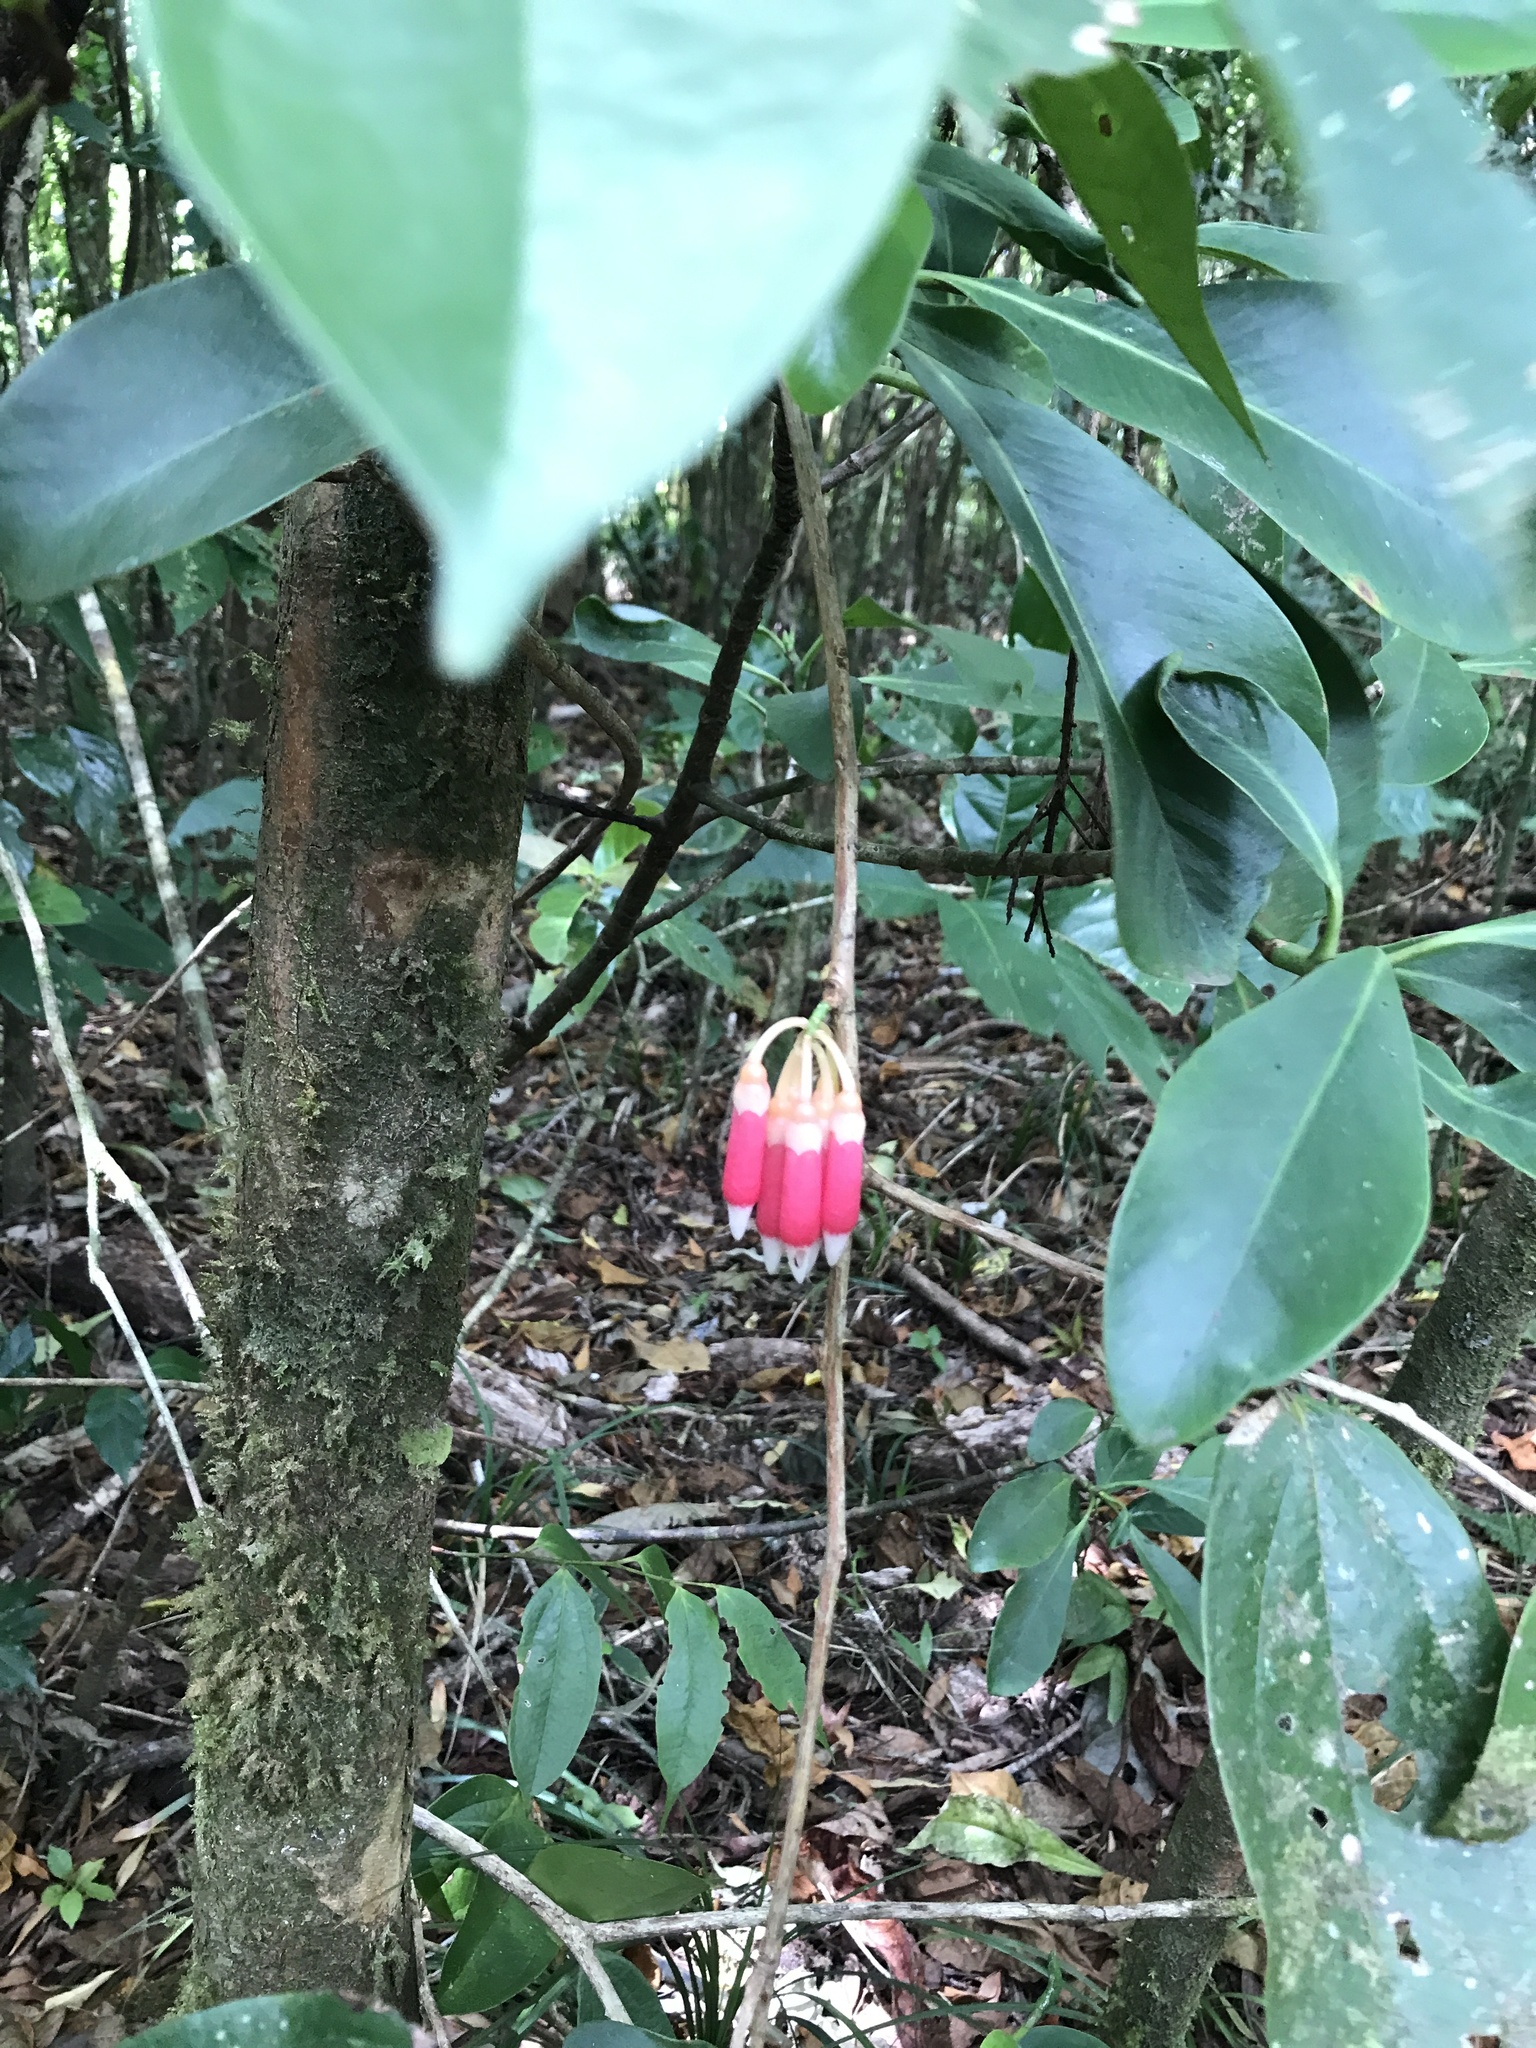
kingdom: Plantae
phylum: Tracheophyta
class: Magnoliopsida
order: Ericales
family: Ericaceae
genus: Psammisia
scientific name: Psammisia ramiflora
